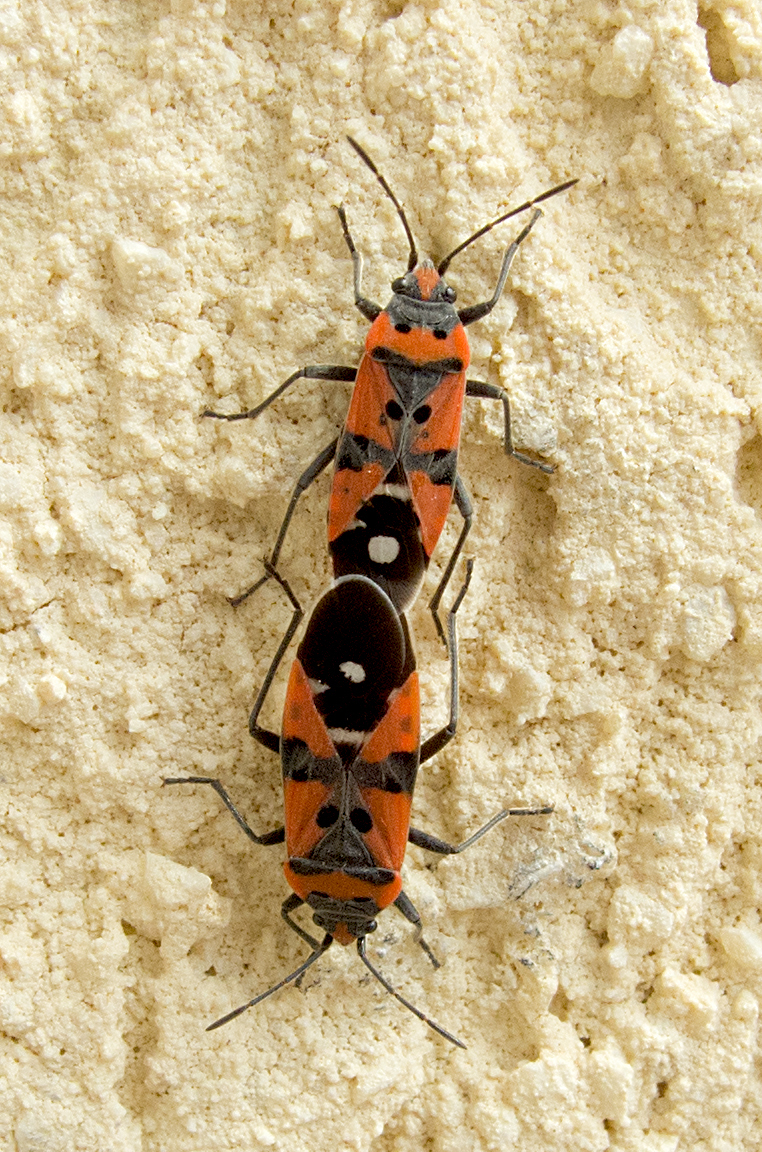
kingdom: Animalia
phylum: Arthropoda
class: Insecta
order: Hemiptera
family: Lygaeidae
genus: Lygaeus
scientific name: Lygaeus equestris
